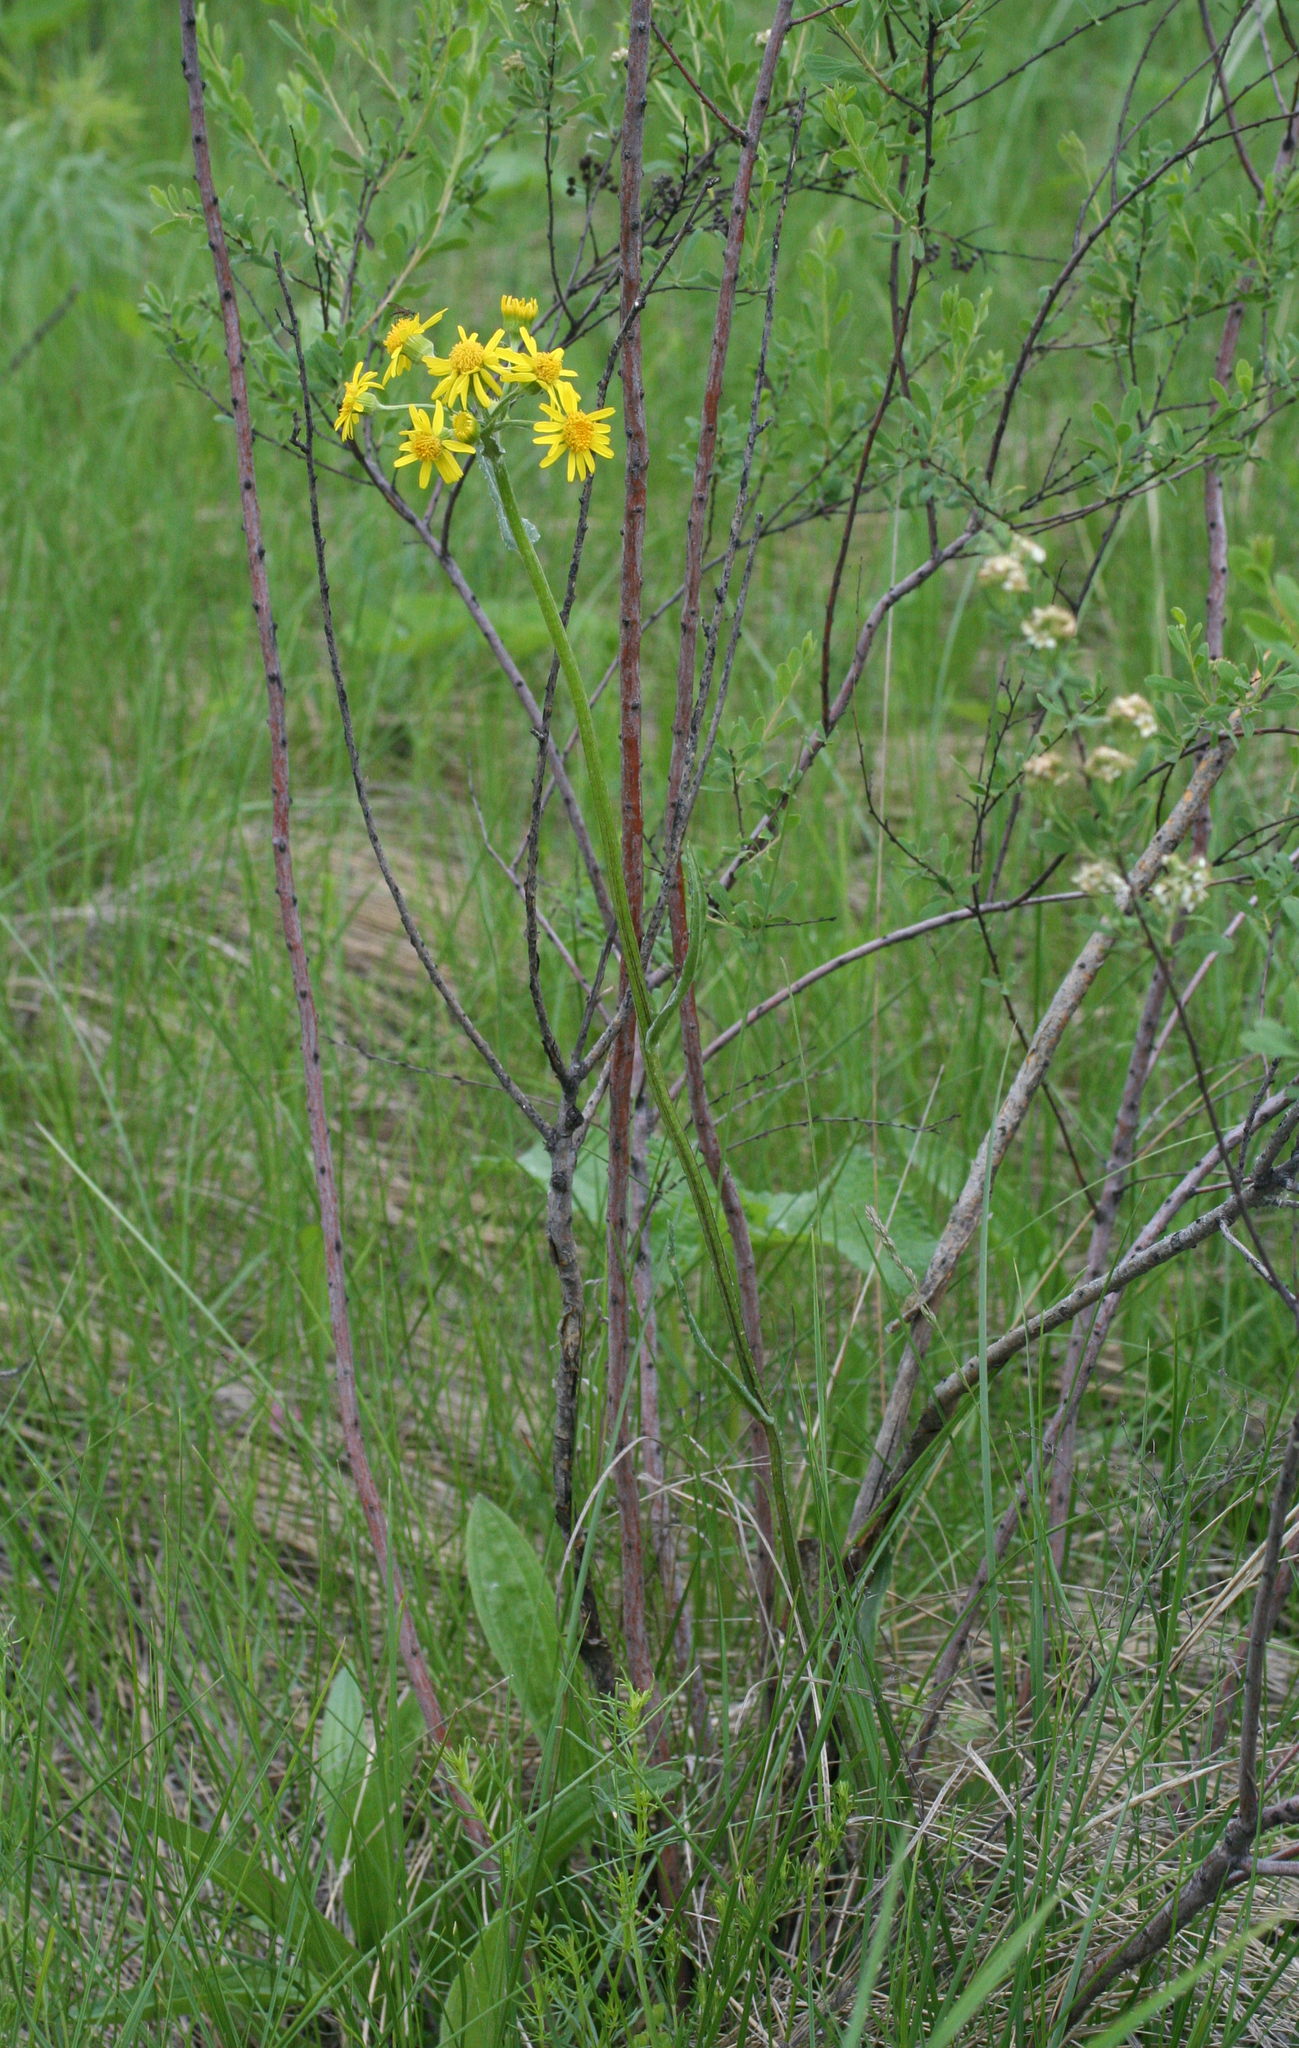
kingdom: Plantae
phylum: Tracheophyta
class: Magnoliopsida
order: Asterales
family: Asteraceae
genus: Tephroseris
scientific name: Tephroseris integrifolia
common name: Field fleawort
